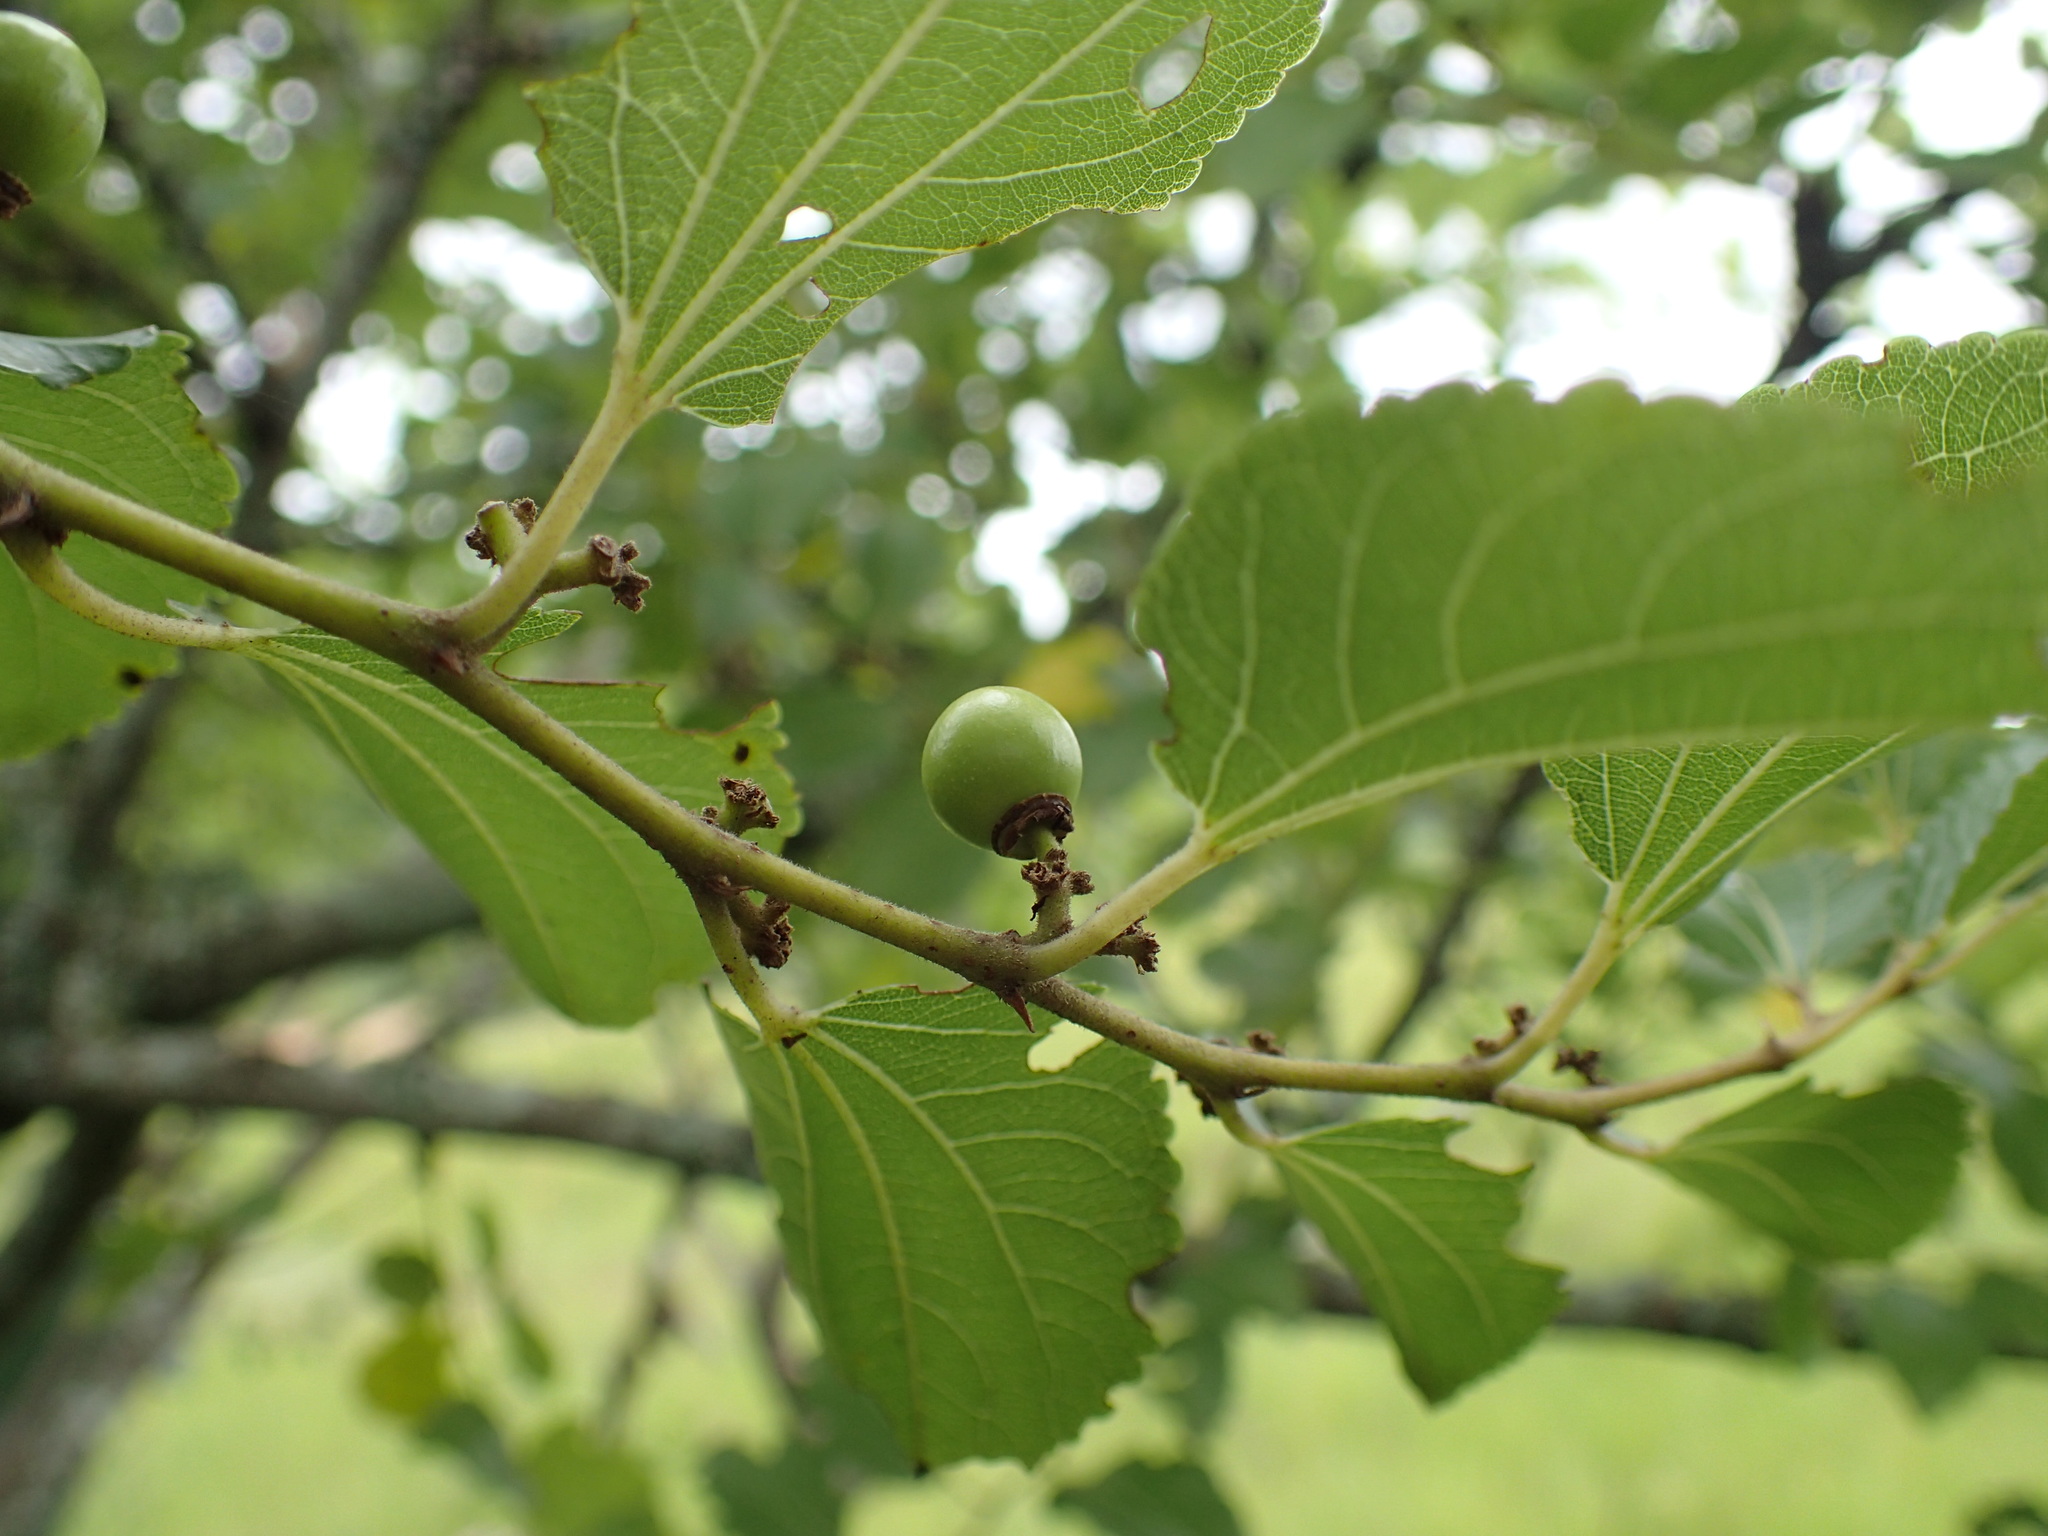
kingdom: Plantae
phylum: Tracheophyta
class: Magnoliopsida
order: Rosales
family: Rhamnaceae
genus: Ziziphus
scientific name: Ziziphus mucronata
